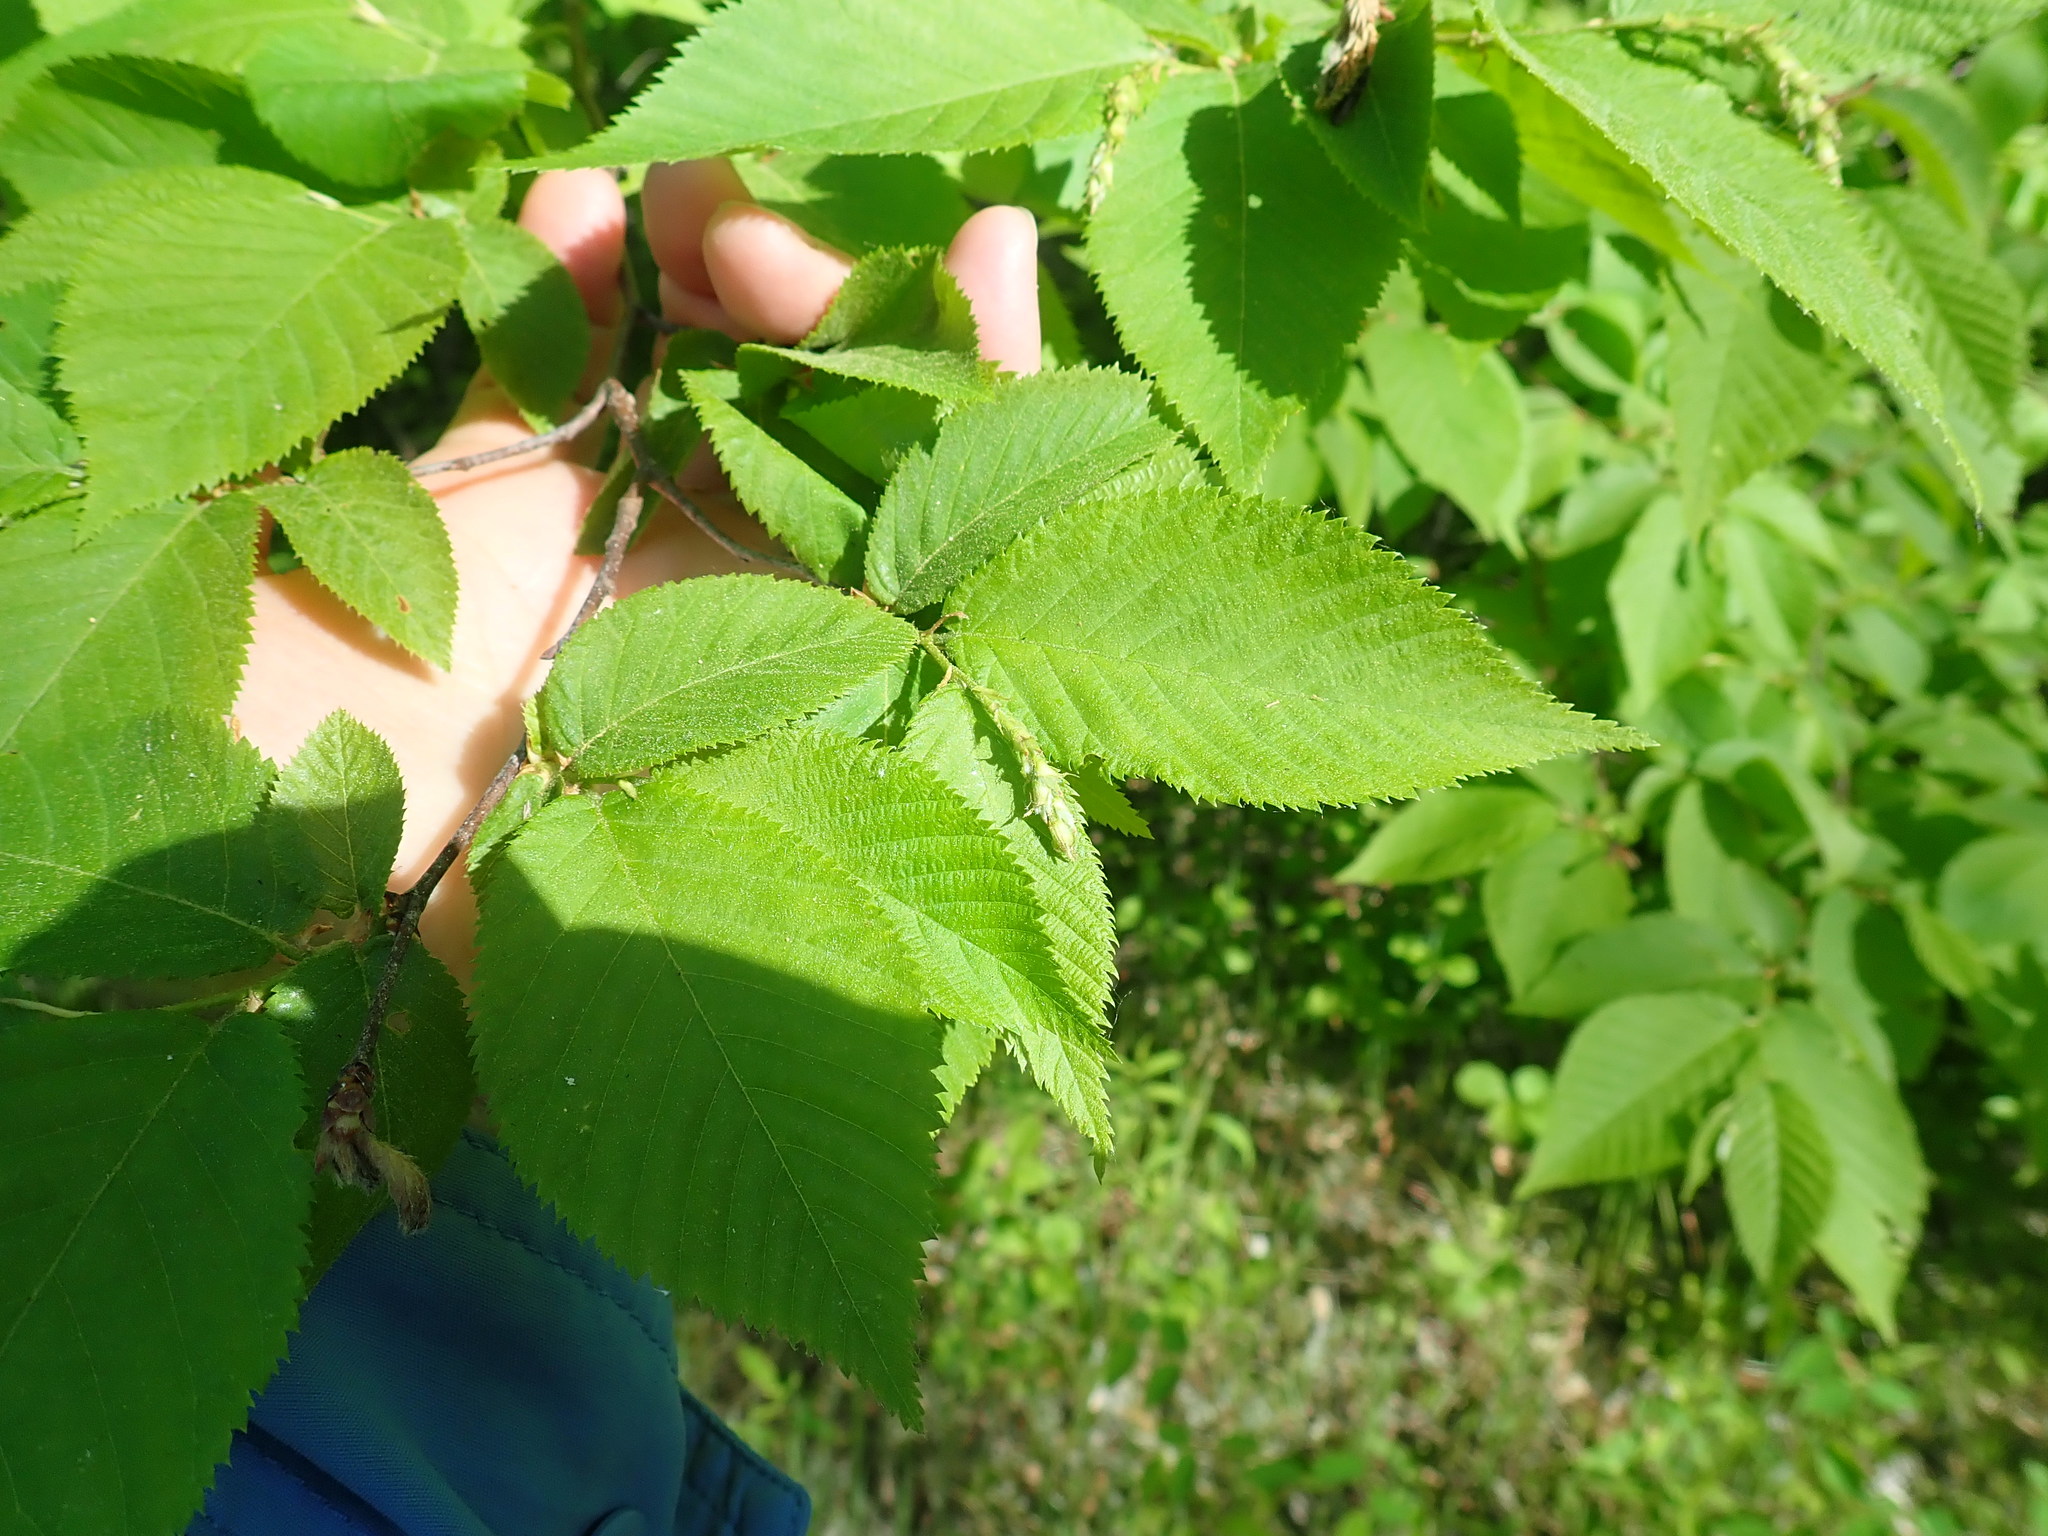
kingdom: Plantae
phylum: Tracheophyta
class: Magnoliopsida
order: Fagales
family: Betulaceae
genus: Ostrya
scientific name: Ostrya virginiana
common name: Ironwood
